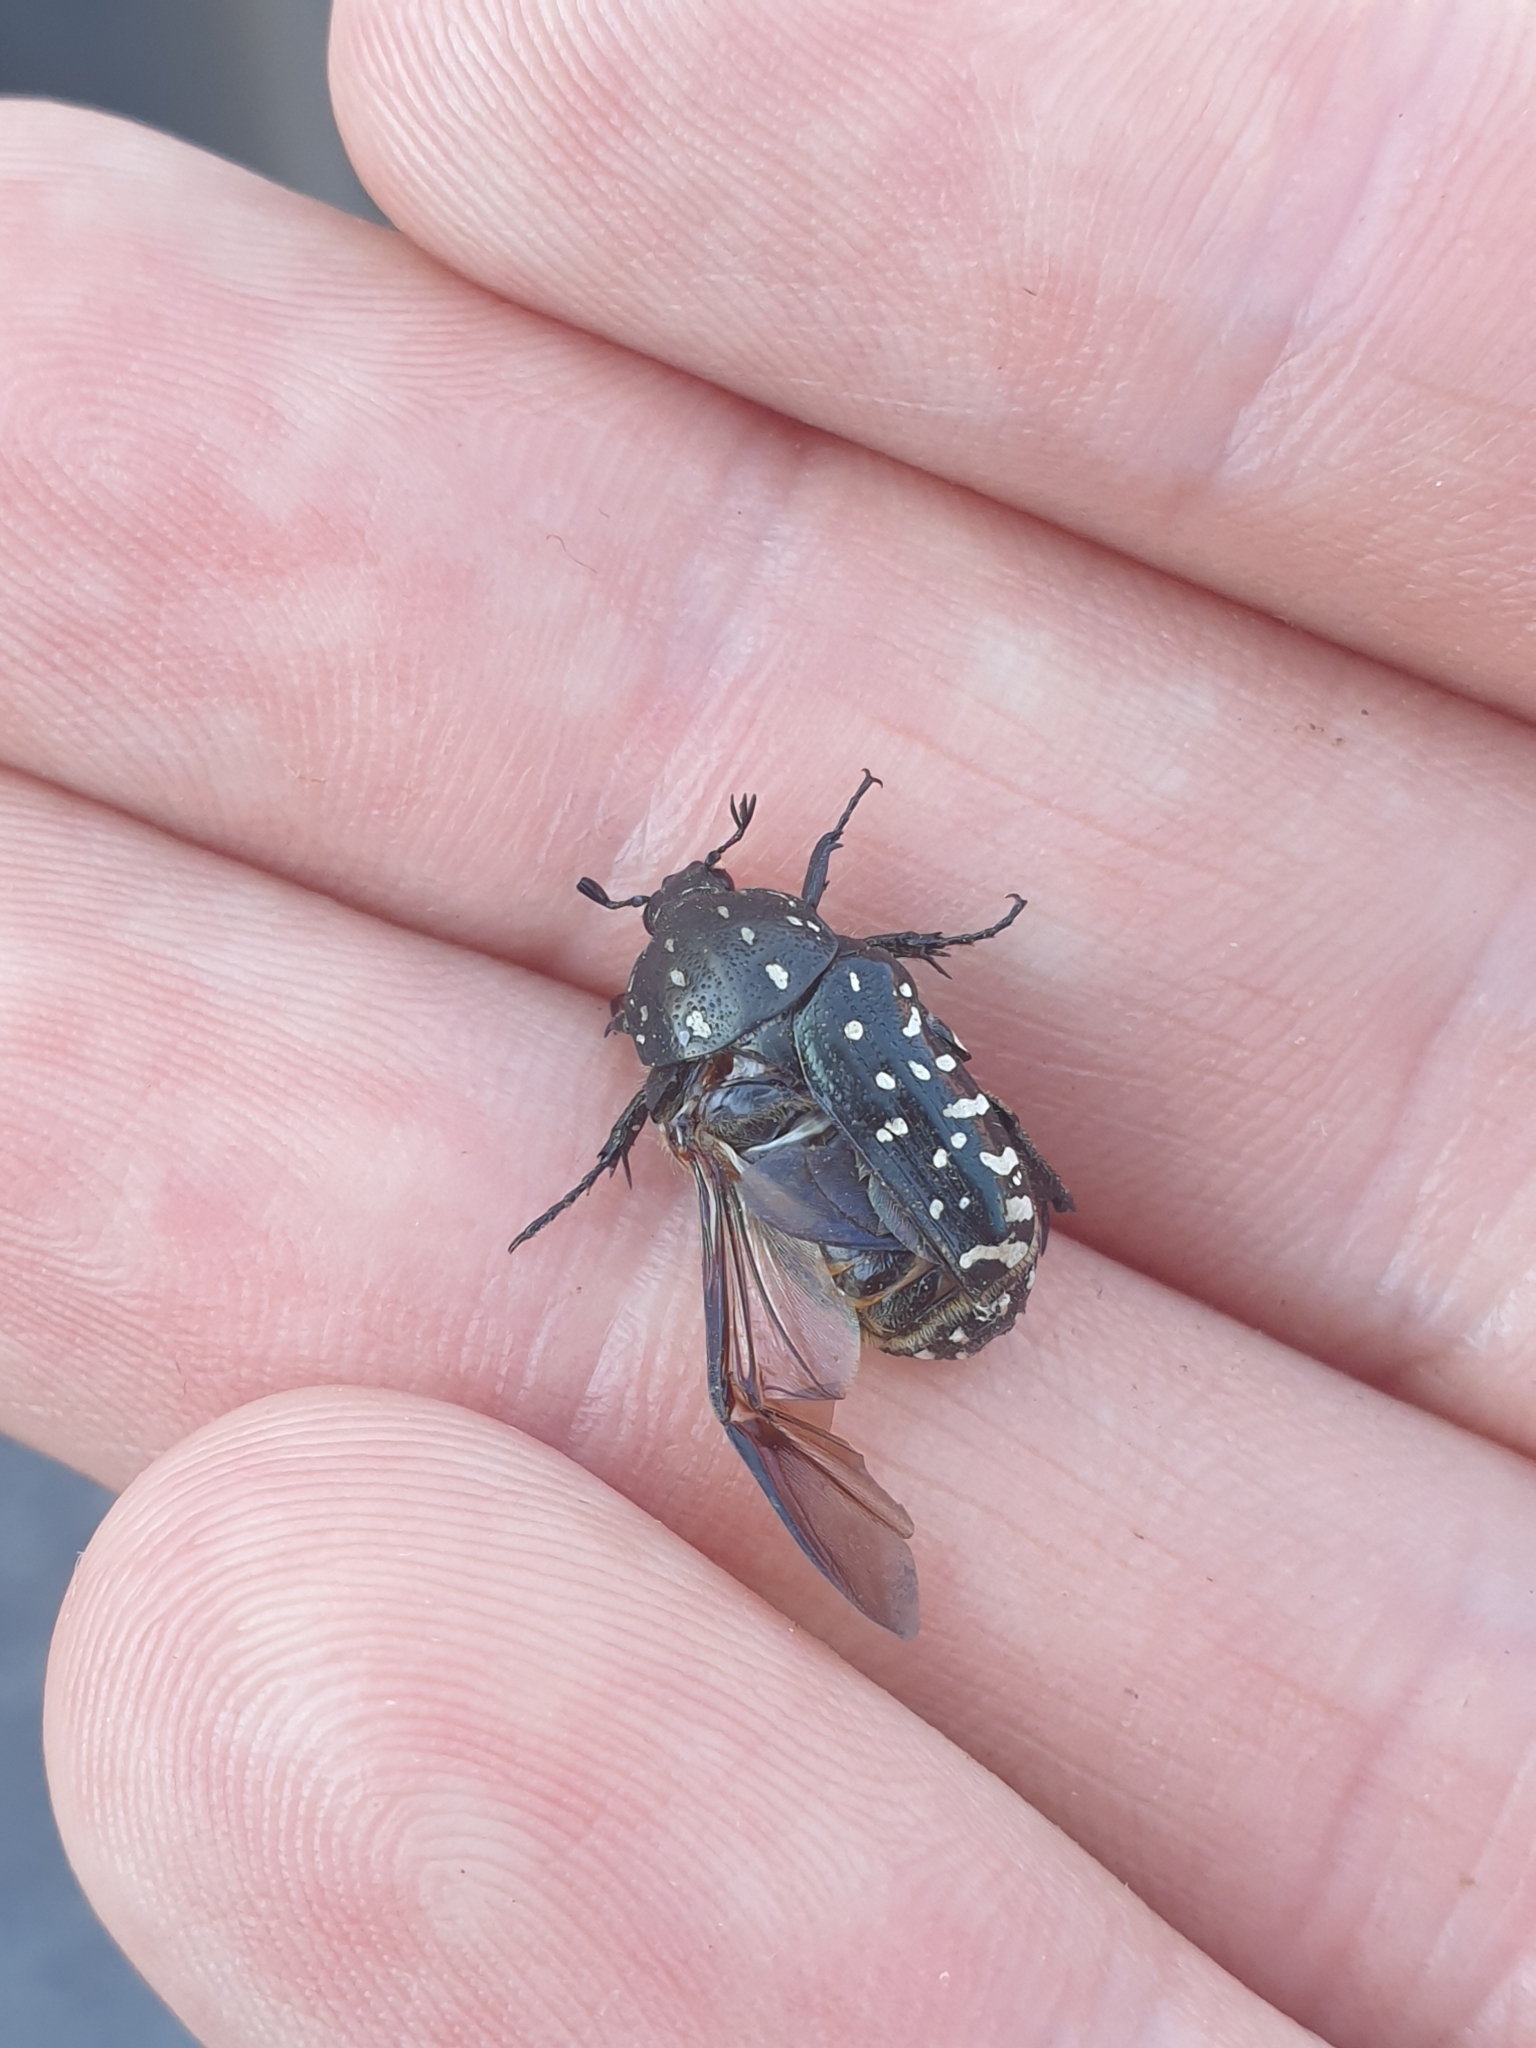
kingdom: Animalia
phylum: Arthropoda
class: Insecta
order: Coleoptera
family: Scarabaeidae
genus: Oxythyrea
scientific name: Oxythyrea funesta
